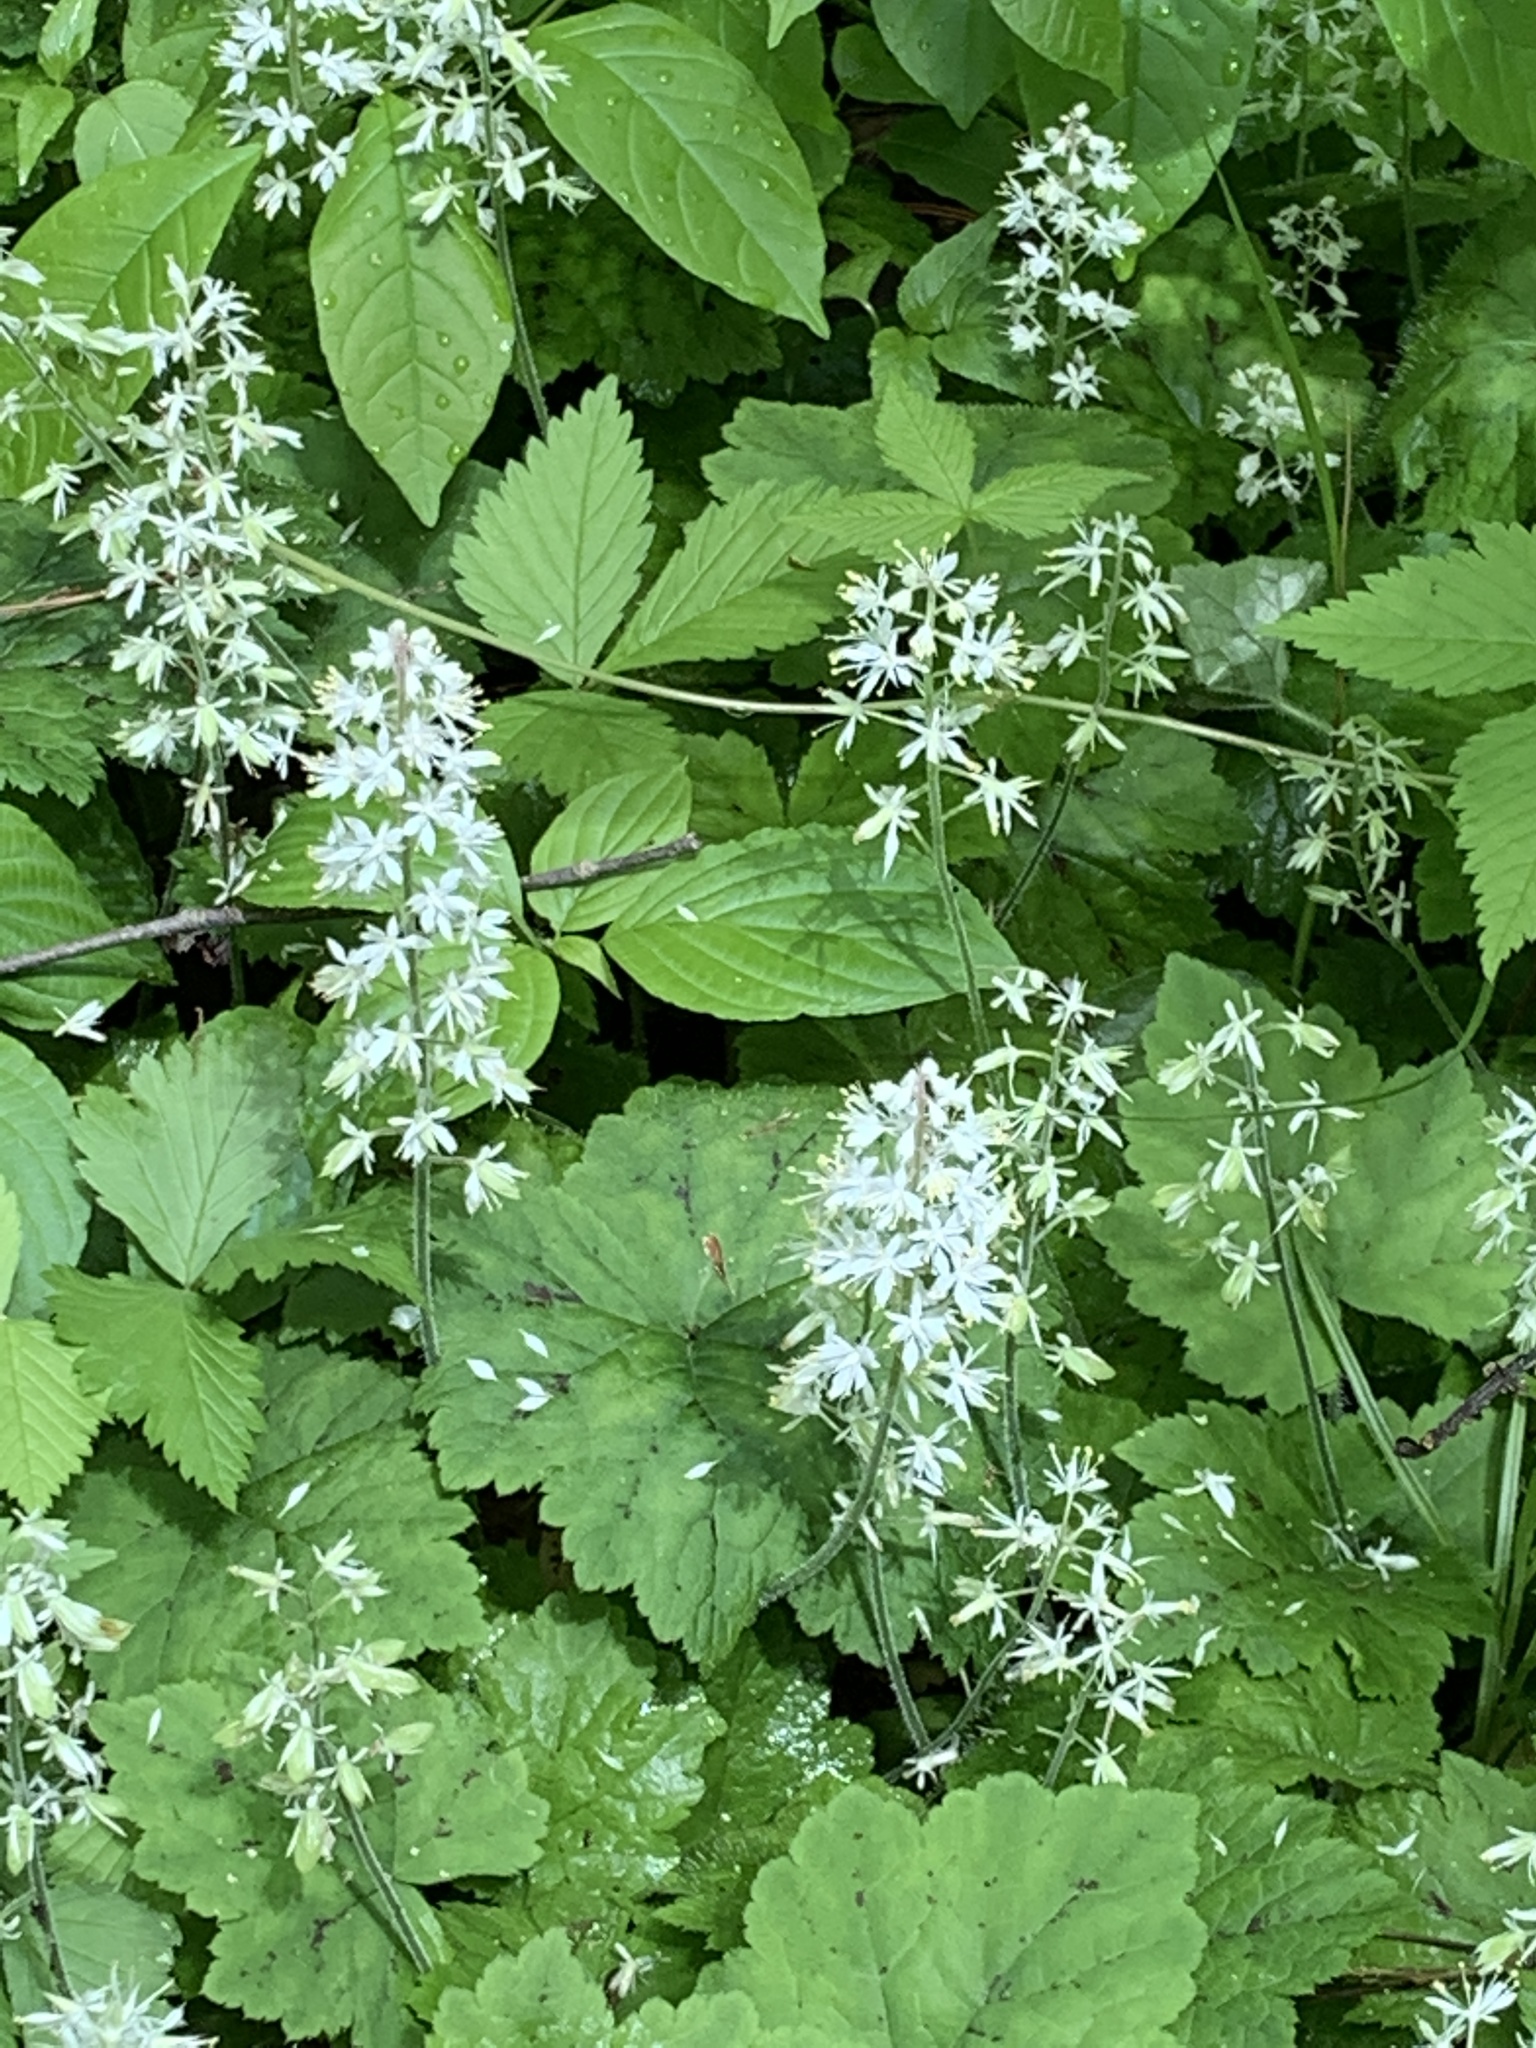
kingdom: Plantae
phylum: Tracheophyta
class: Magnoliopsida
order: Saxifragales
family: Saxifragaceae
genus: Tiarella
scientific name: Tiarella stolonifera
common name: Stoloniferous foamflower
